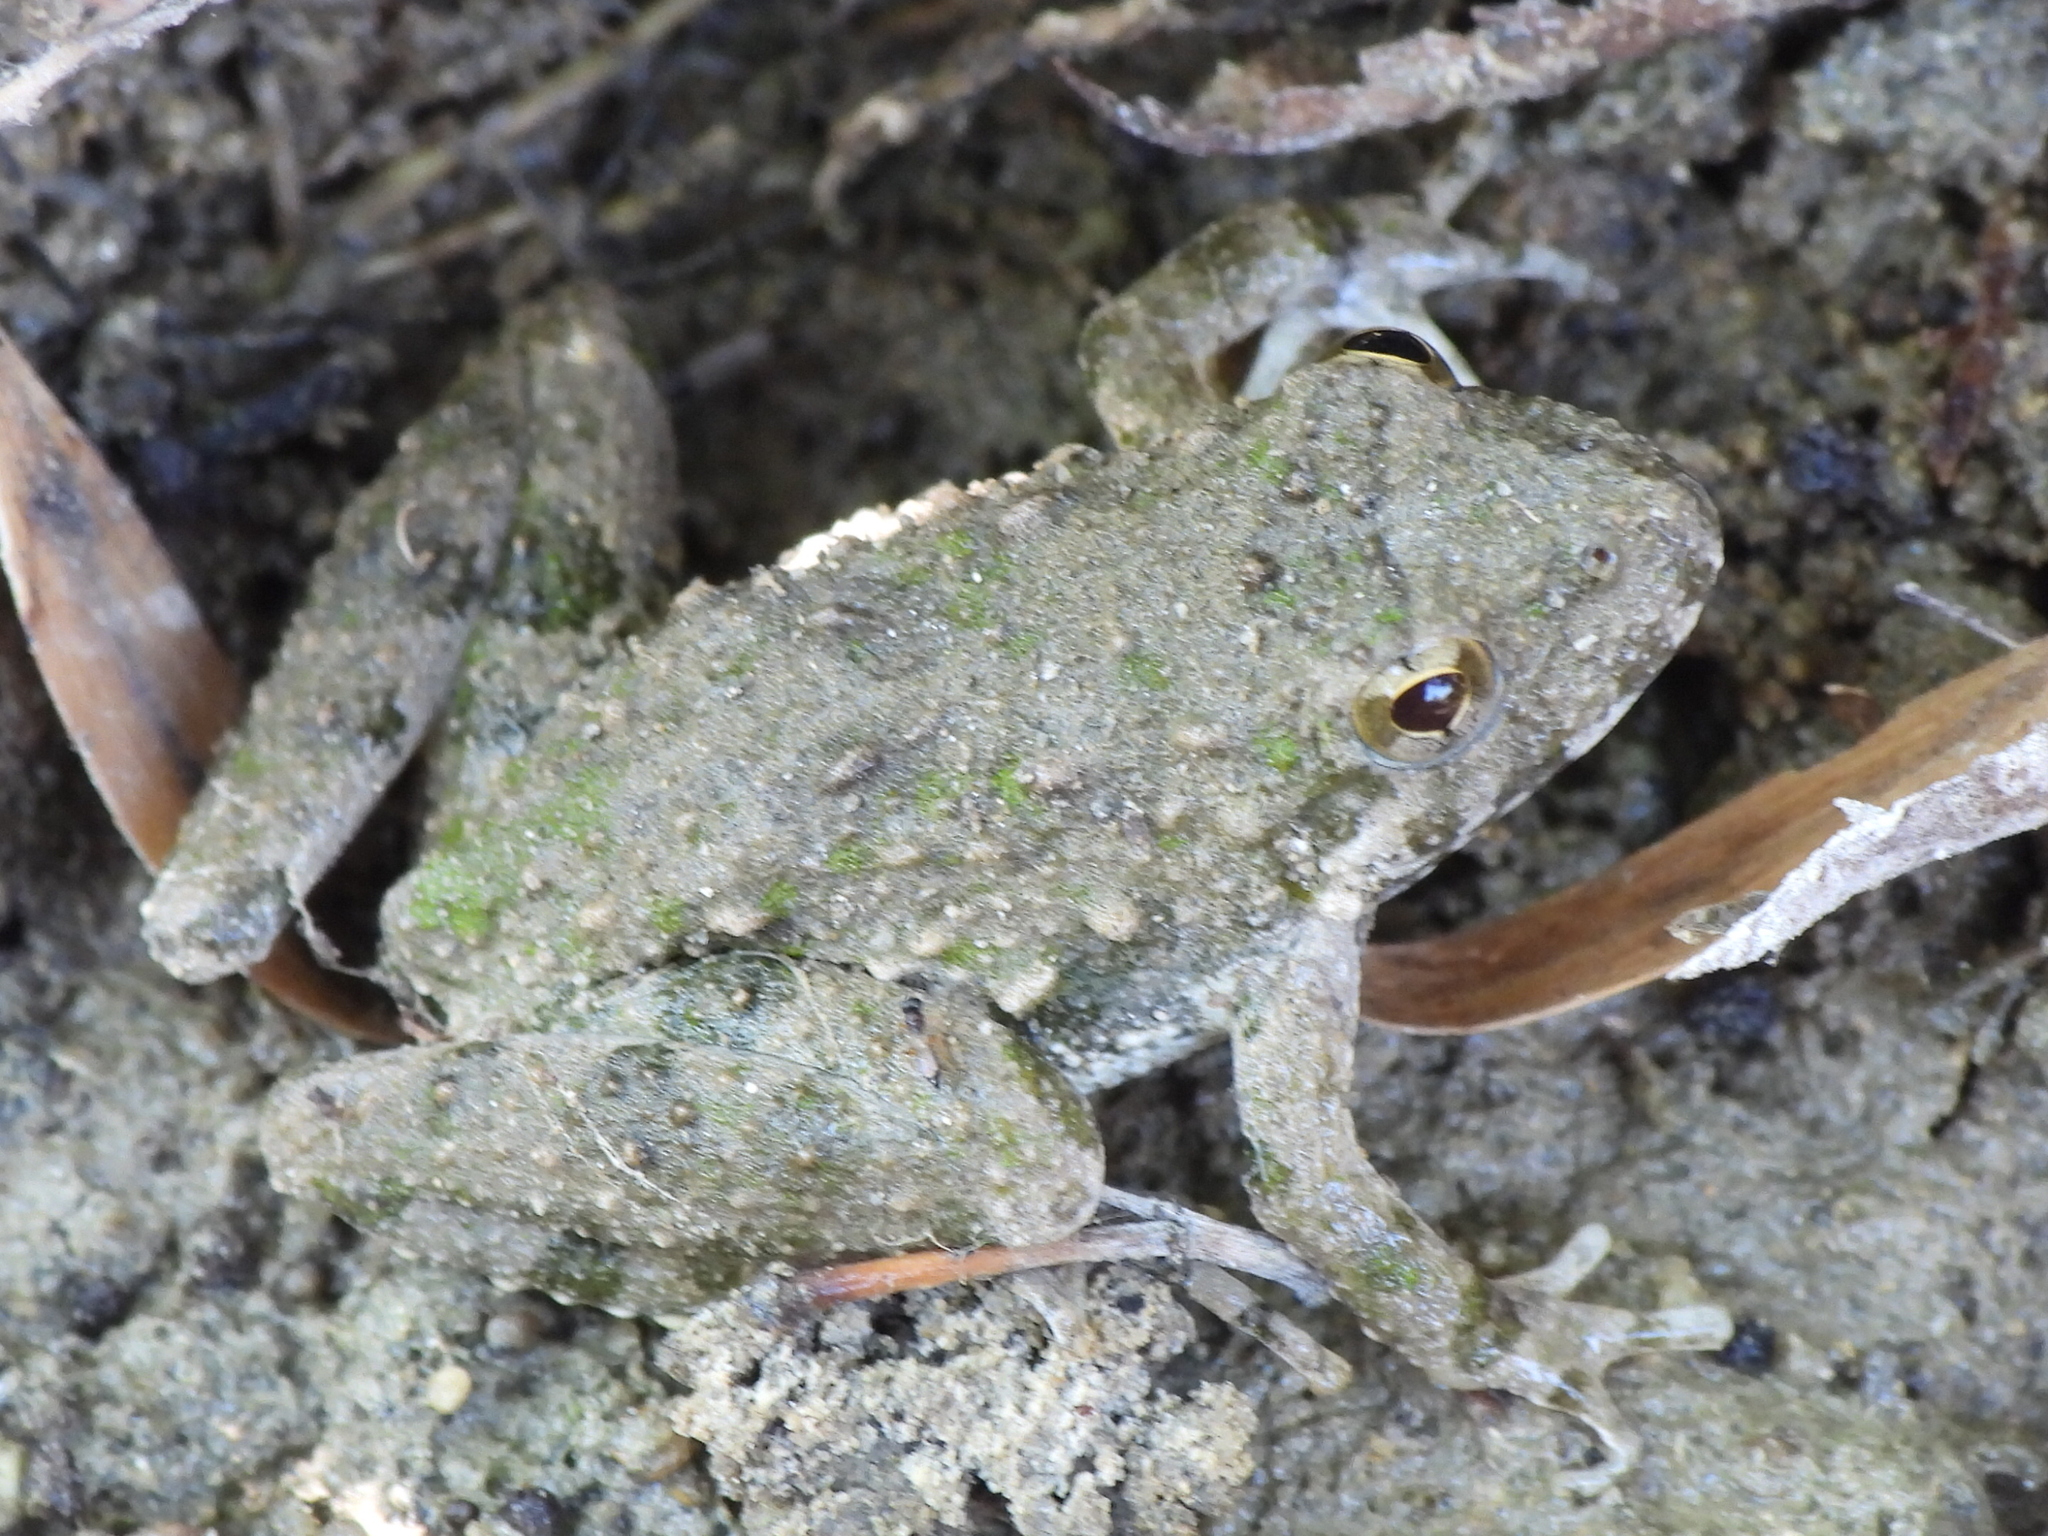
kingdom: Animalia
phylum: Chordata
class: Amphibia
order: Anura
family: Hylidae
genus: Acris
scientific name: Acris blanchardi
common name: Blanchard's cricket frog
